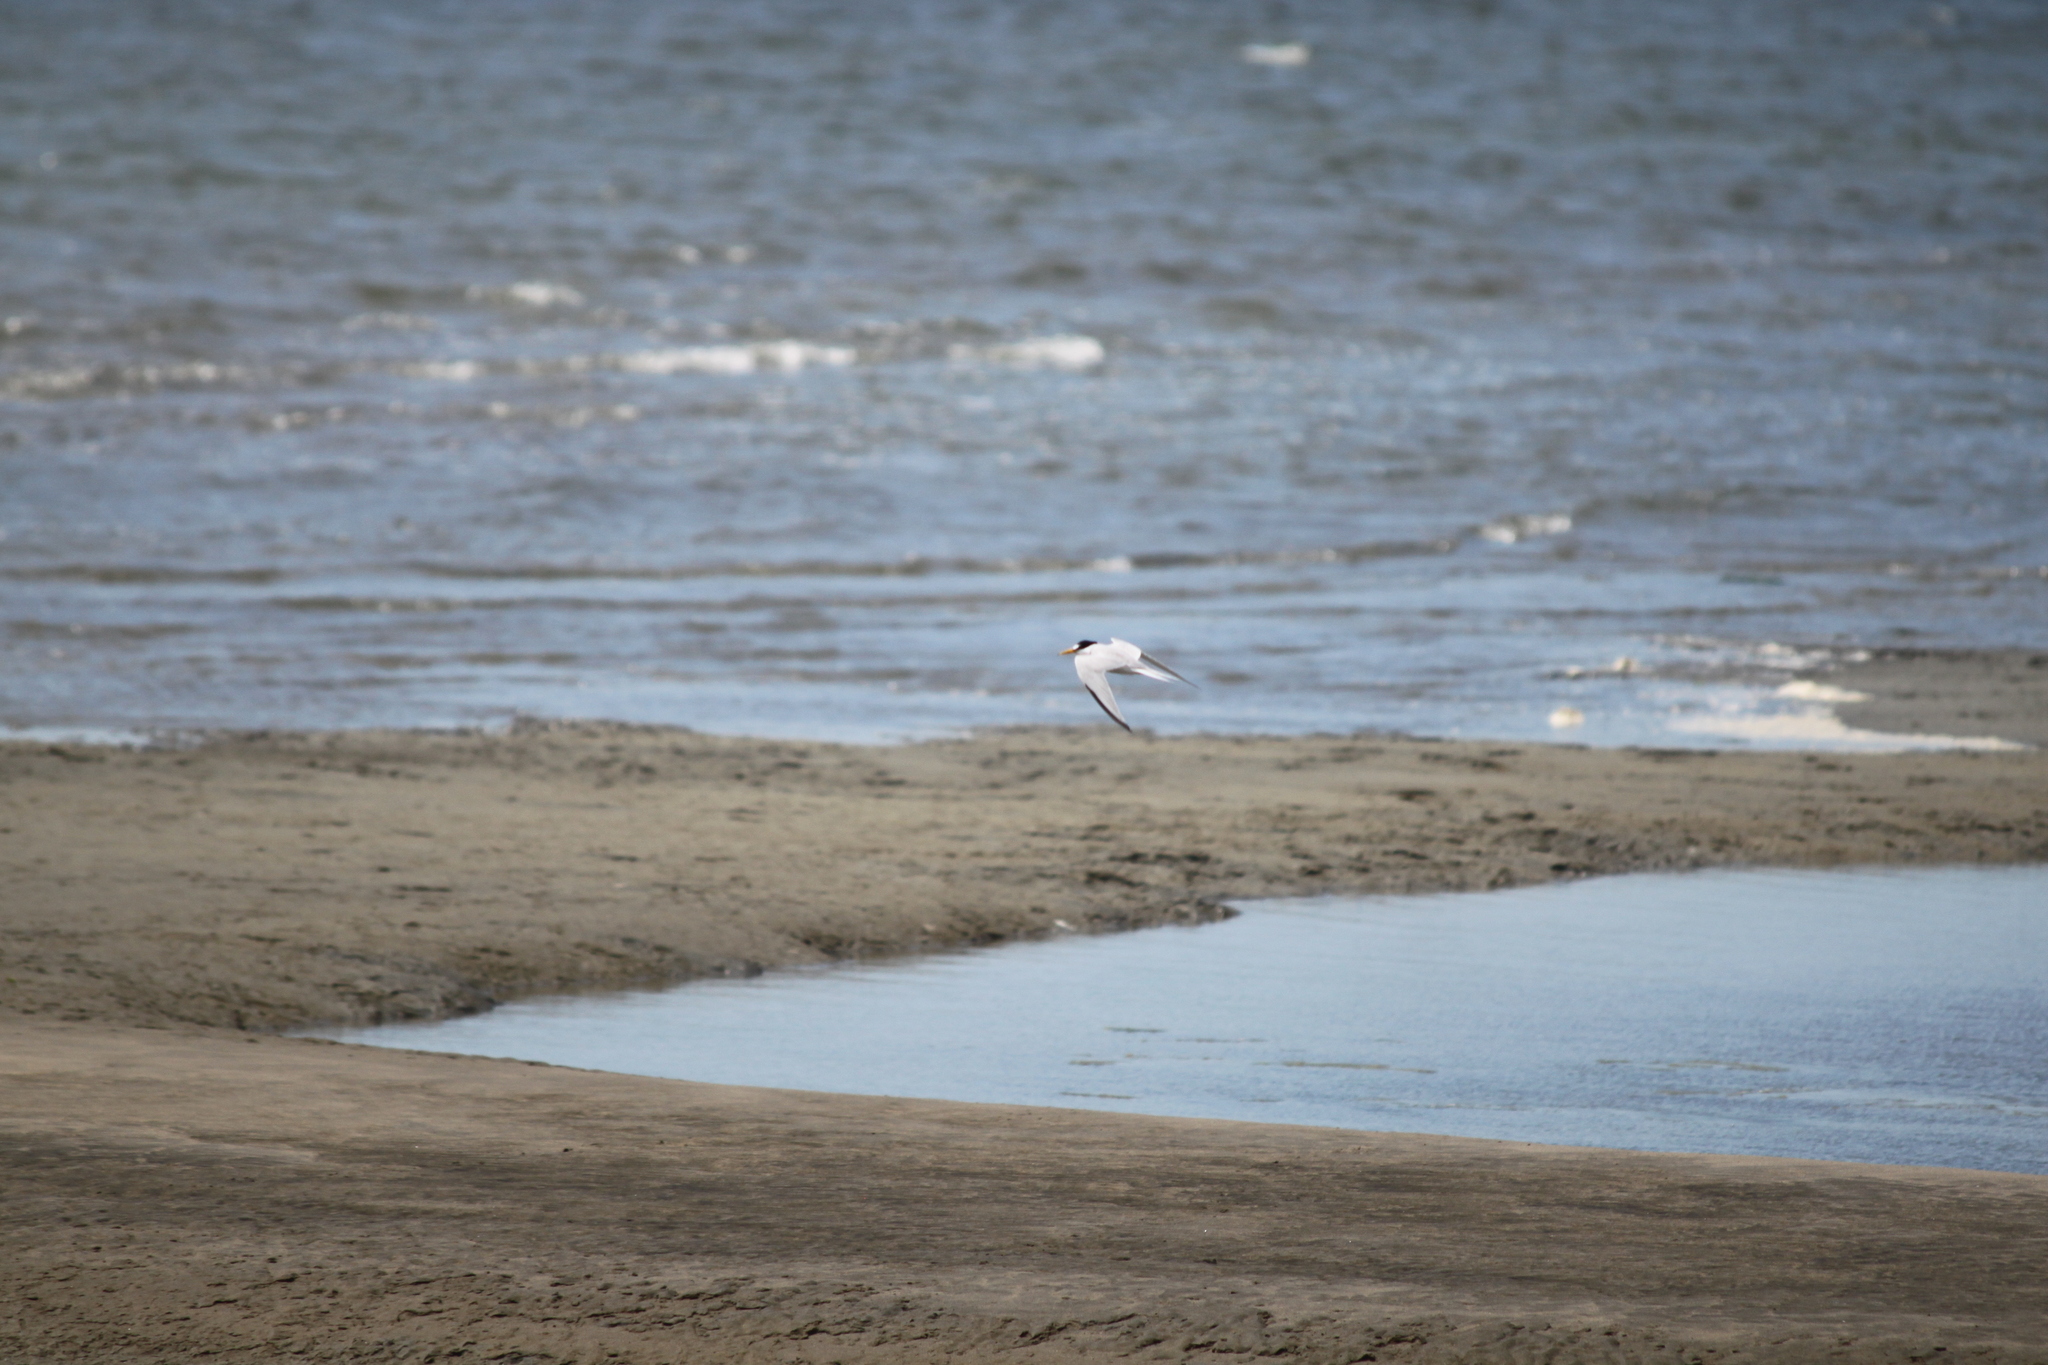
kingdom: Animalia
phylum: Chordata
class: Aves
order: Charadriiformes
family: Laridae
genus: Sternula
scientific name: Sternula antillarum
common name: Least tern
